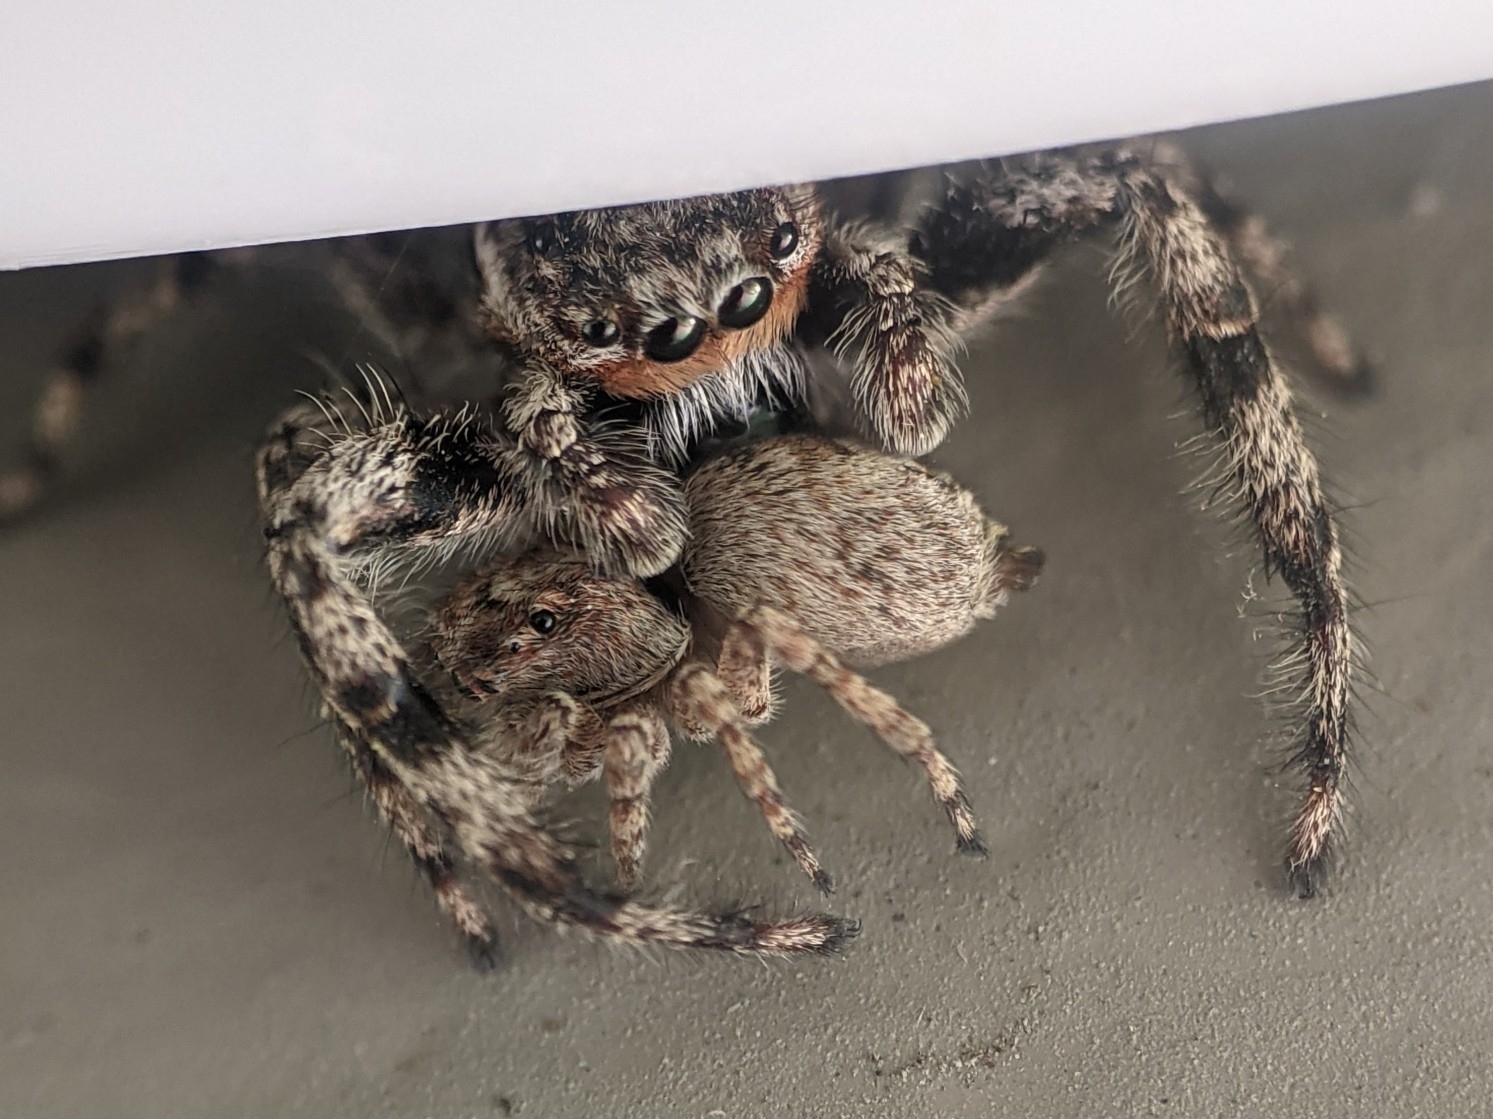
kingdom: Animalia
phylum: Arthropoda
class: Arachnida
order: Araneae
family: Salticidae
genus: Platycryptus
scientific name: Platycryptus undatus
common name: Tan jumping spider
